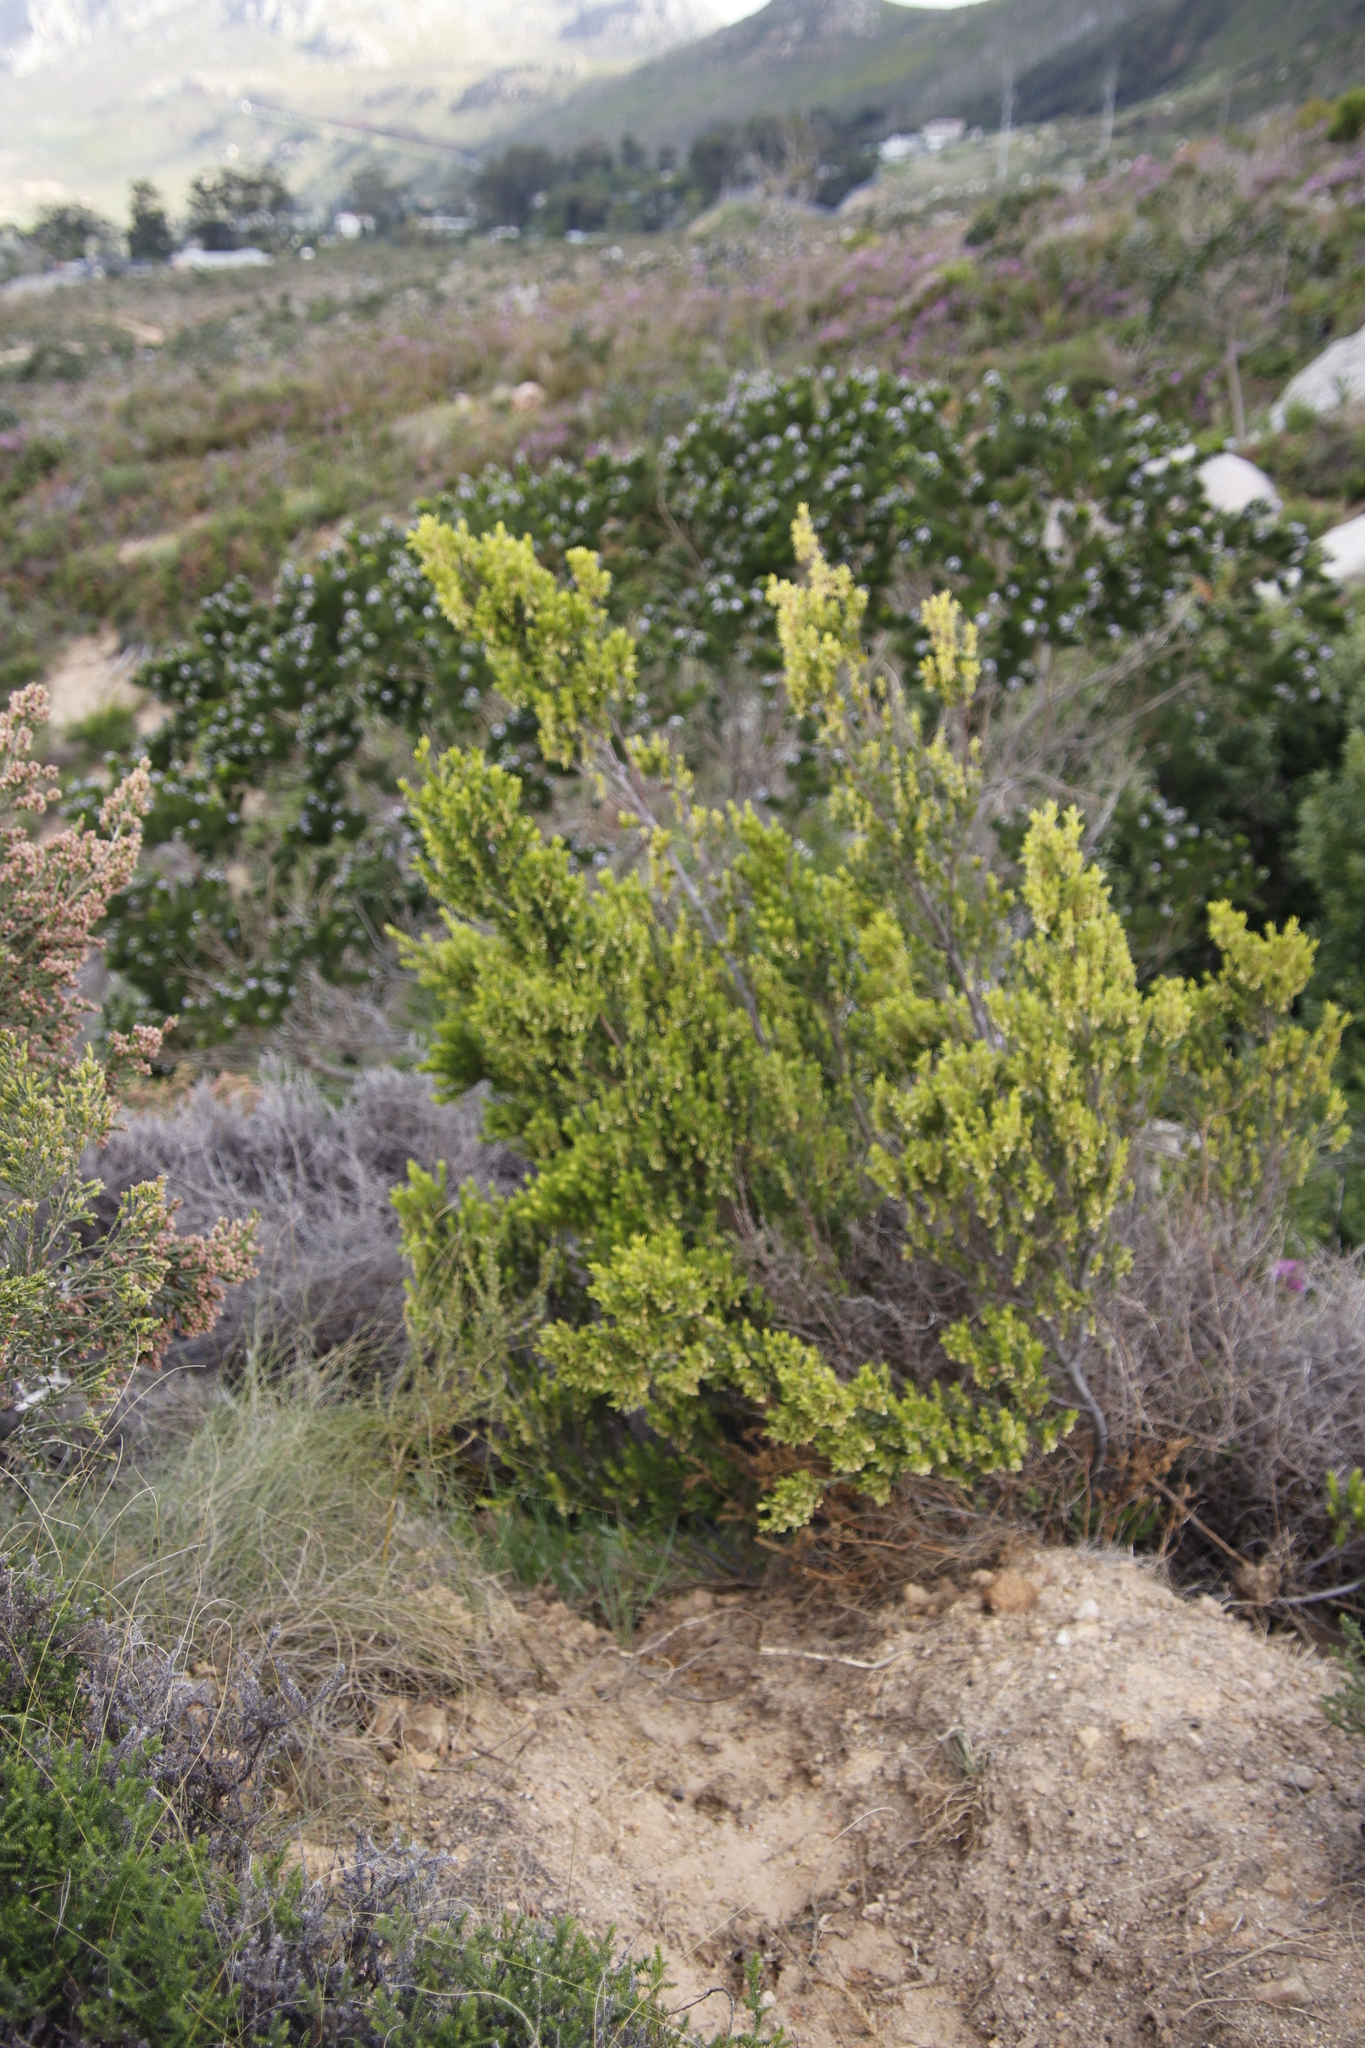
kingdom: Plantae
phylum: Tracheophyta
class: Magnoliopsida
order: Ericales
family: Ebenaceae
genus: Diospyros
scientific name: Diospyros glabra
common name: Fynbos star apple
